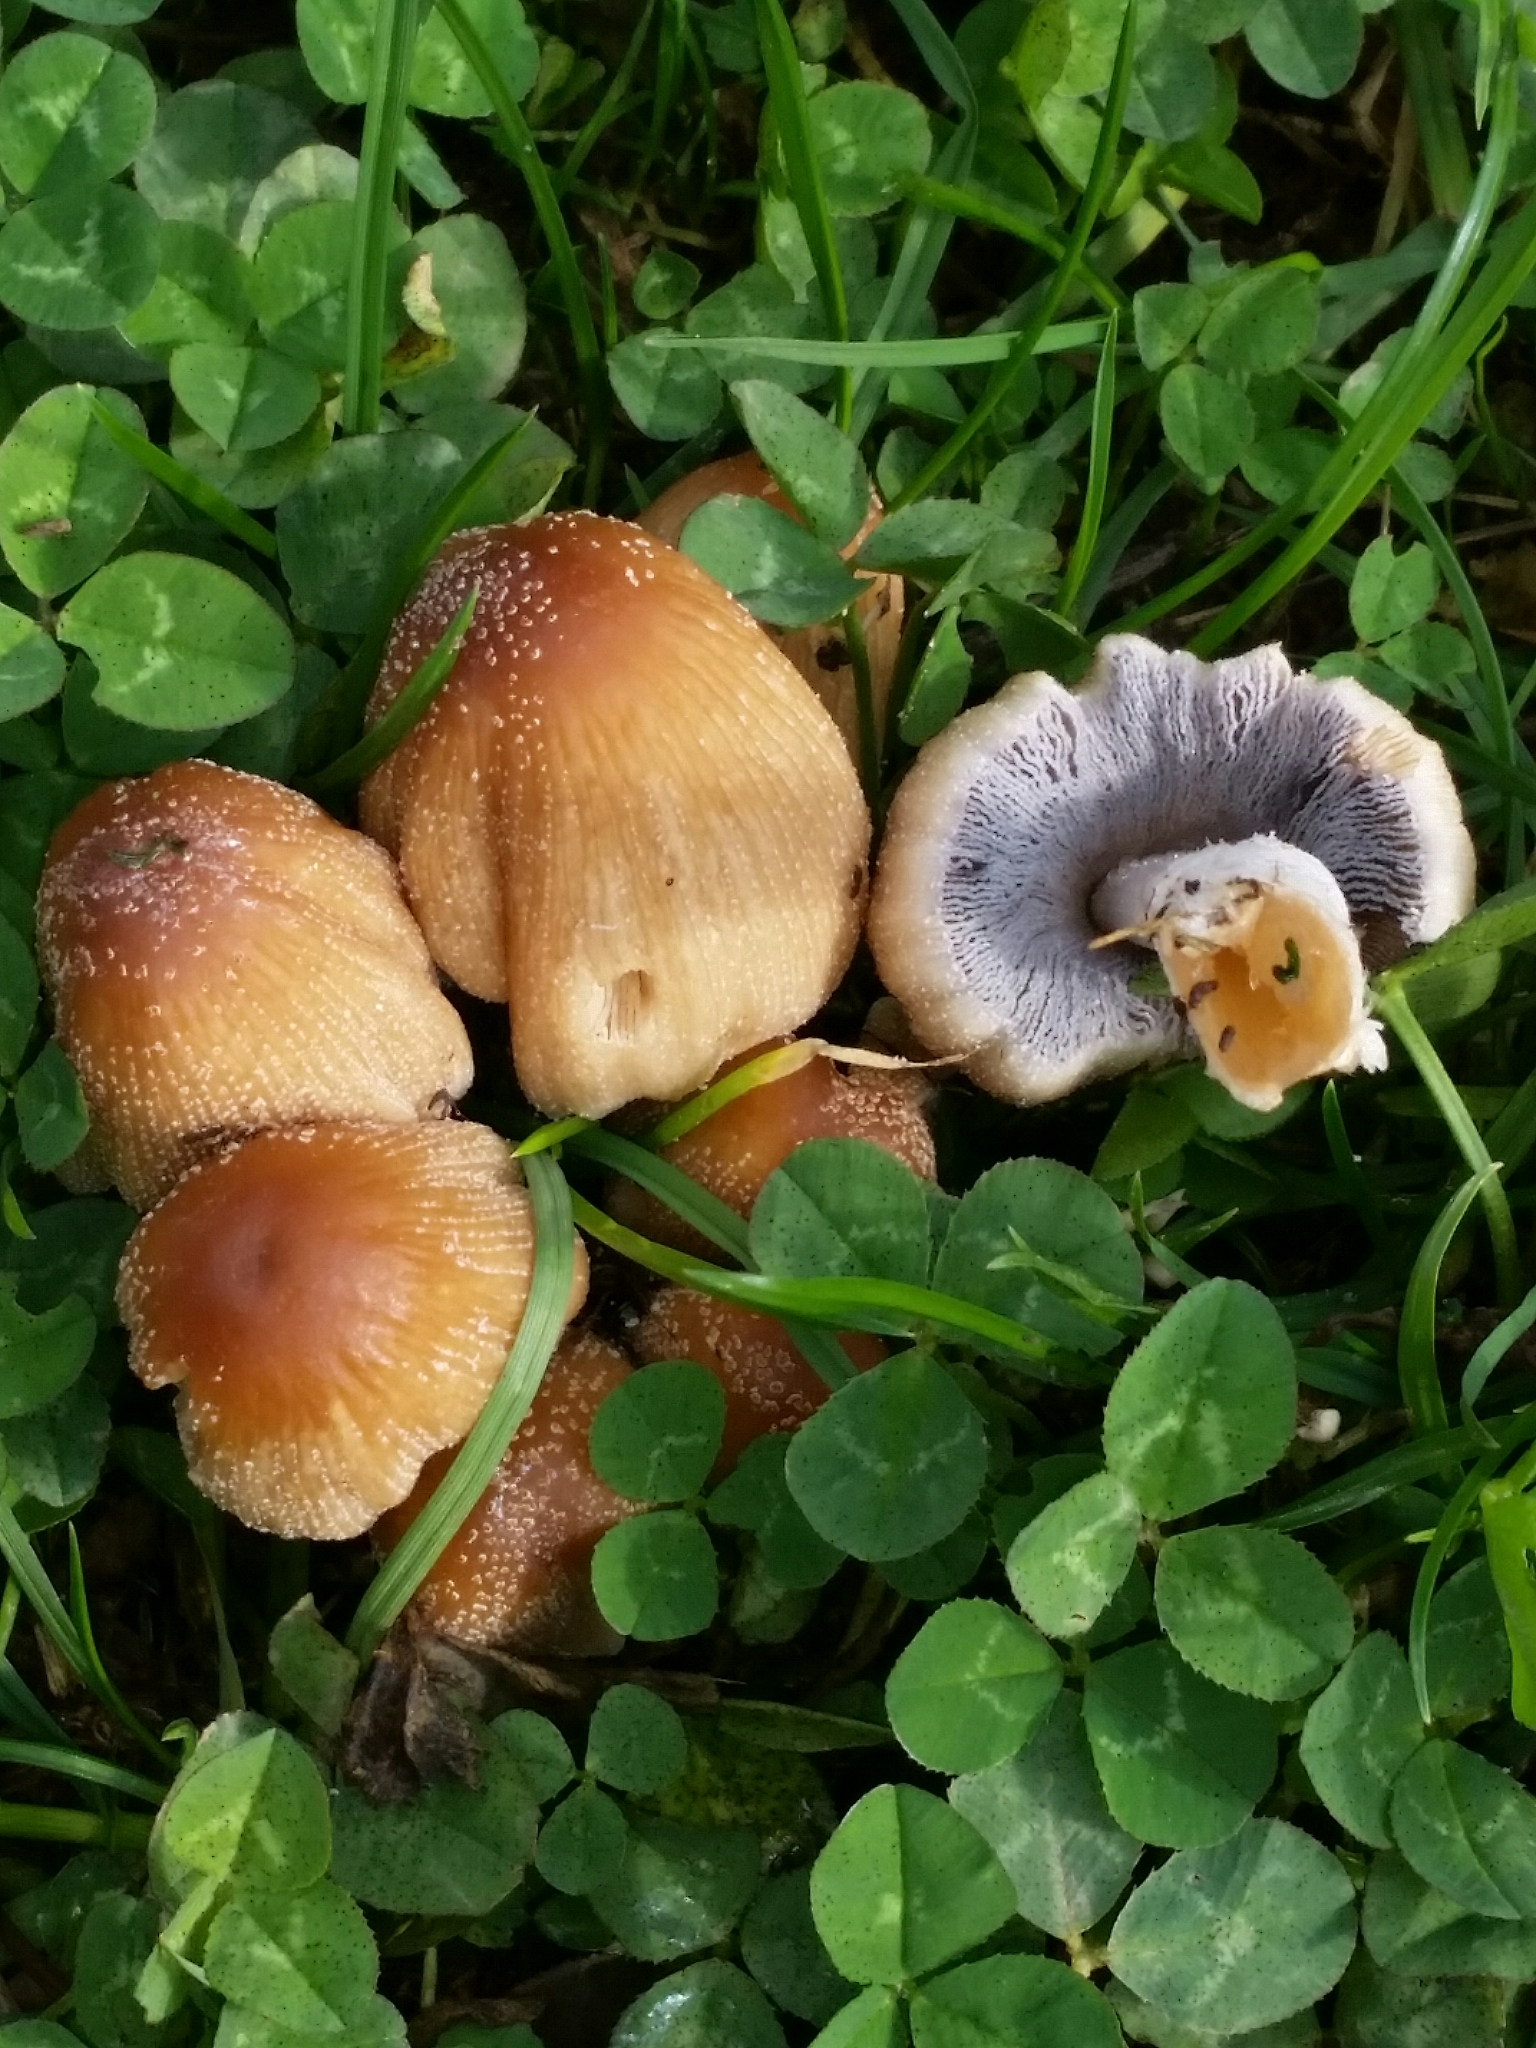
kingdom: Fungi
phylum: Basidiomycota
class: Agaricomycetes
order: Agaricales
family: Psathyrellaceae
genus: Coprinellus
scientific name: Coprinellus micaceus
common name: Glistening ink-cap
